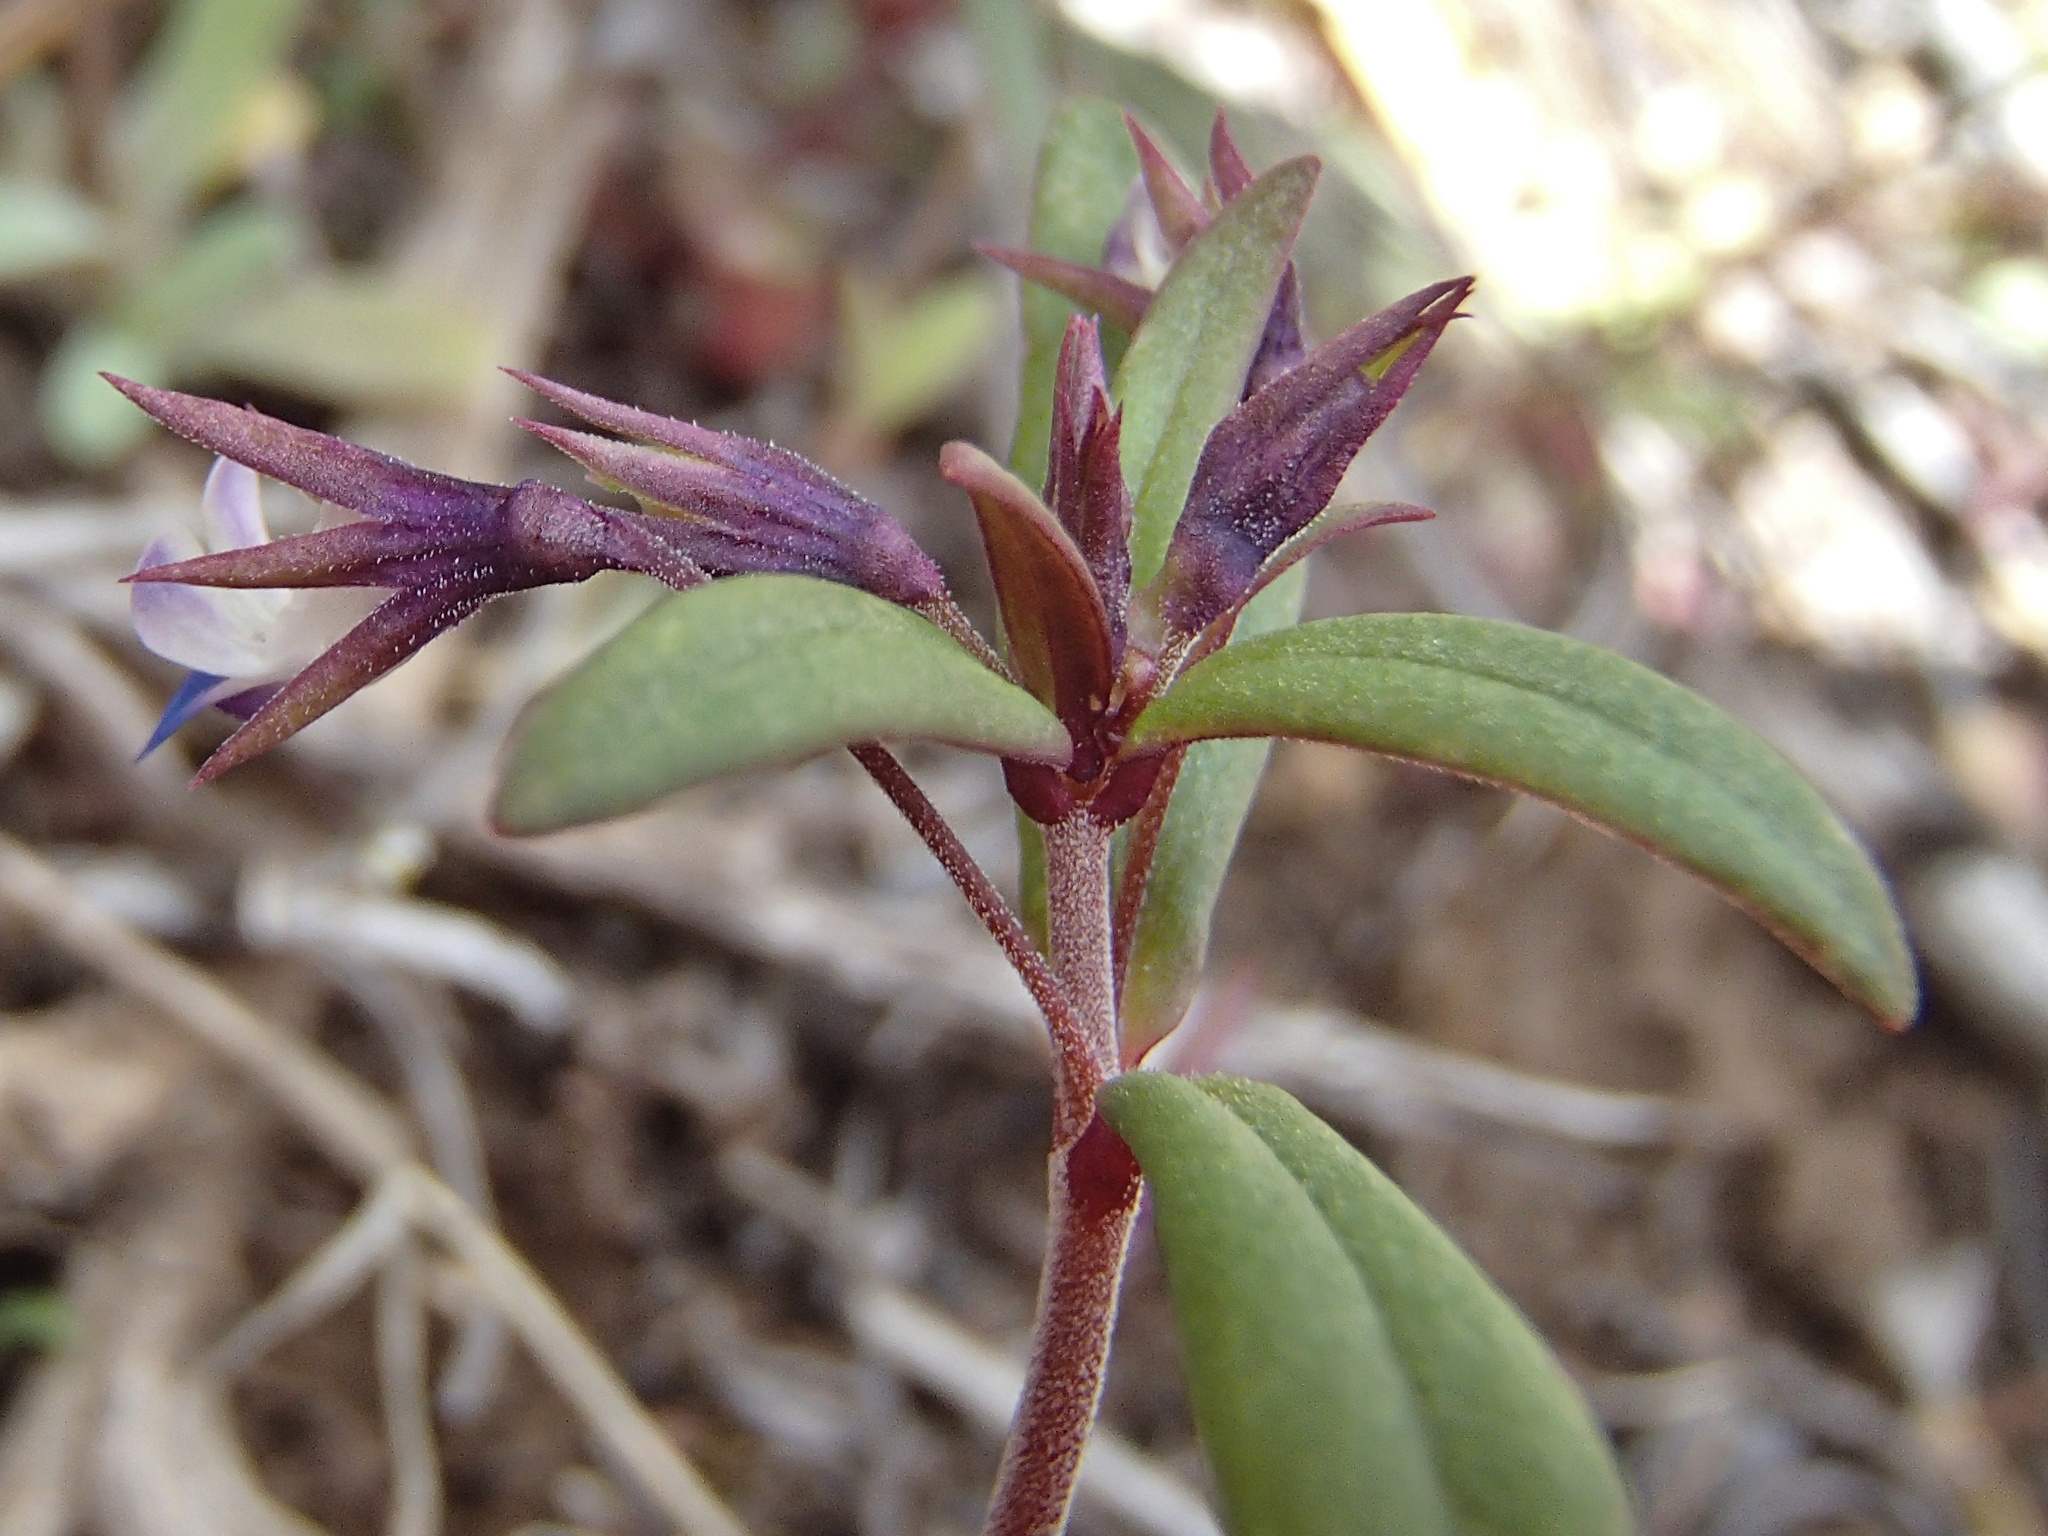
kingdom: Plantae
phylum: Tracheophyta
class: Magnoliopsida
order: Lamiales
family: Plantaginaceae
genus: Collinsia
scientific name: Collinsia parviflora
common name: Blue-lips
